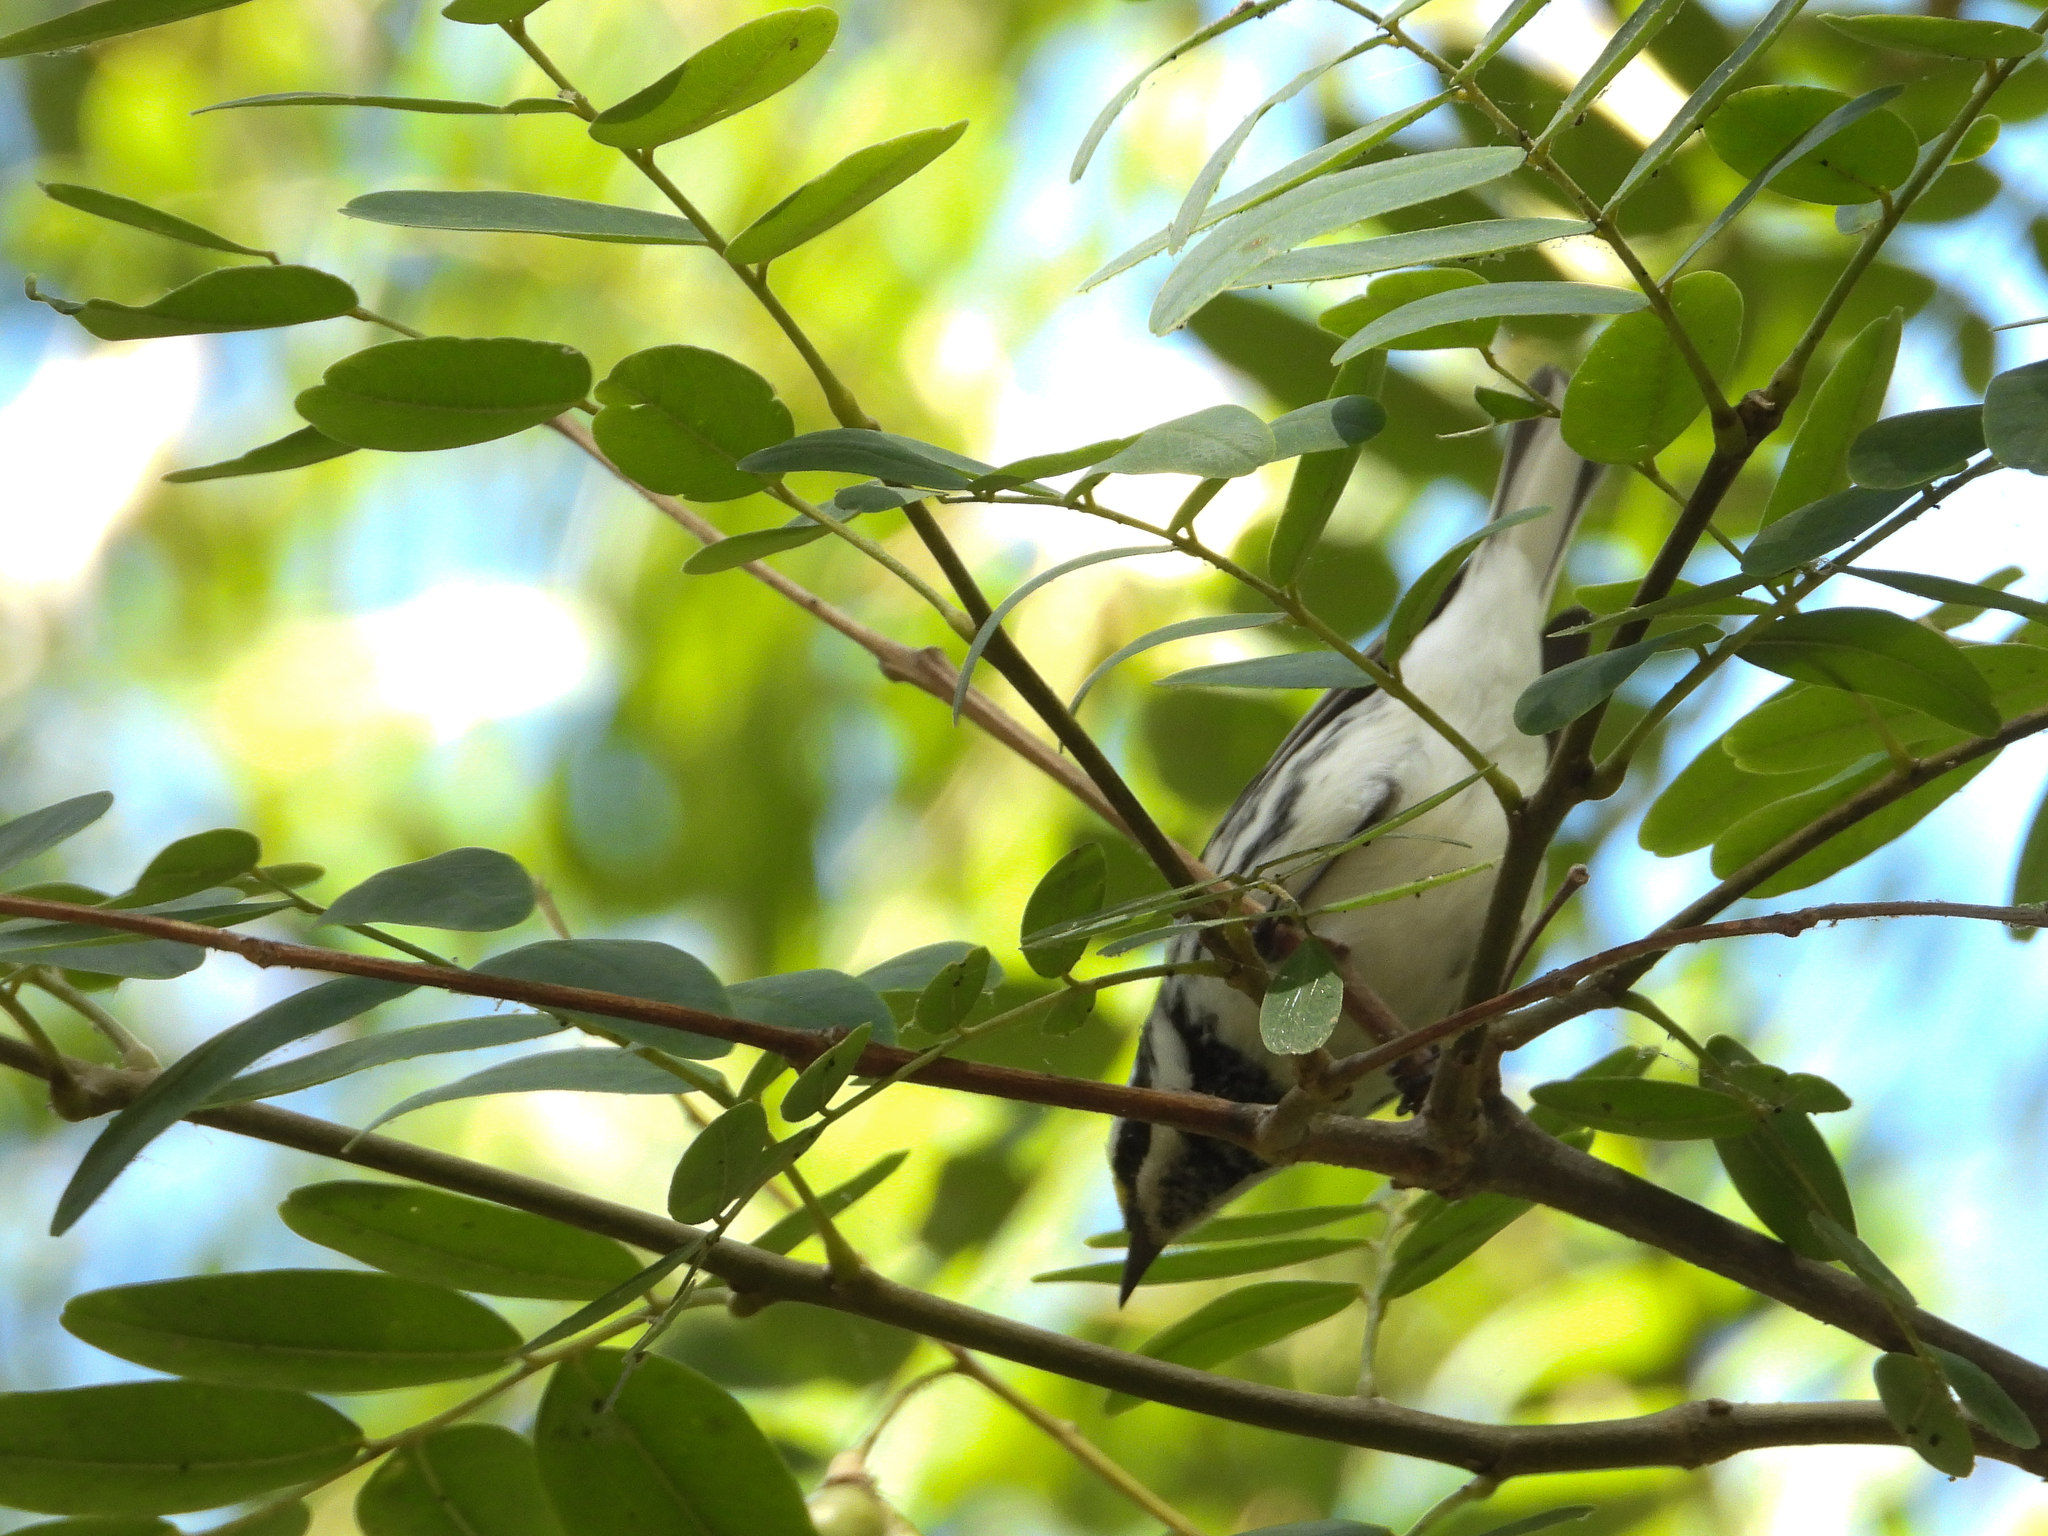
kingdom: Animalia
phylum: Chordata
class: Aves
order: Passeriformes
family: Parulidae
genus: Setophaga
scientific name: Setophaga nigrescens
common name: Black-throated gray warbler
